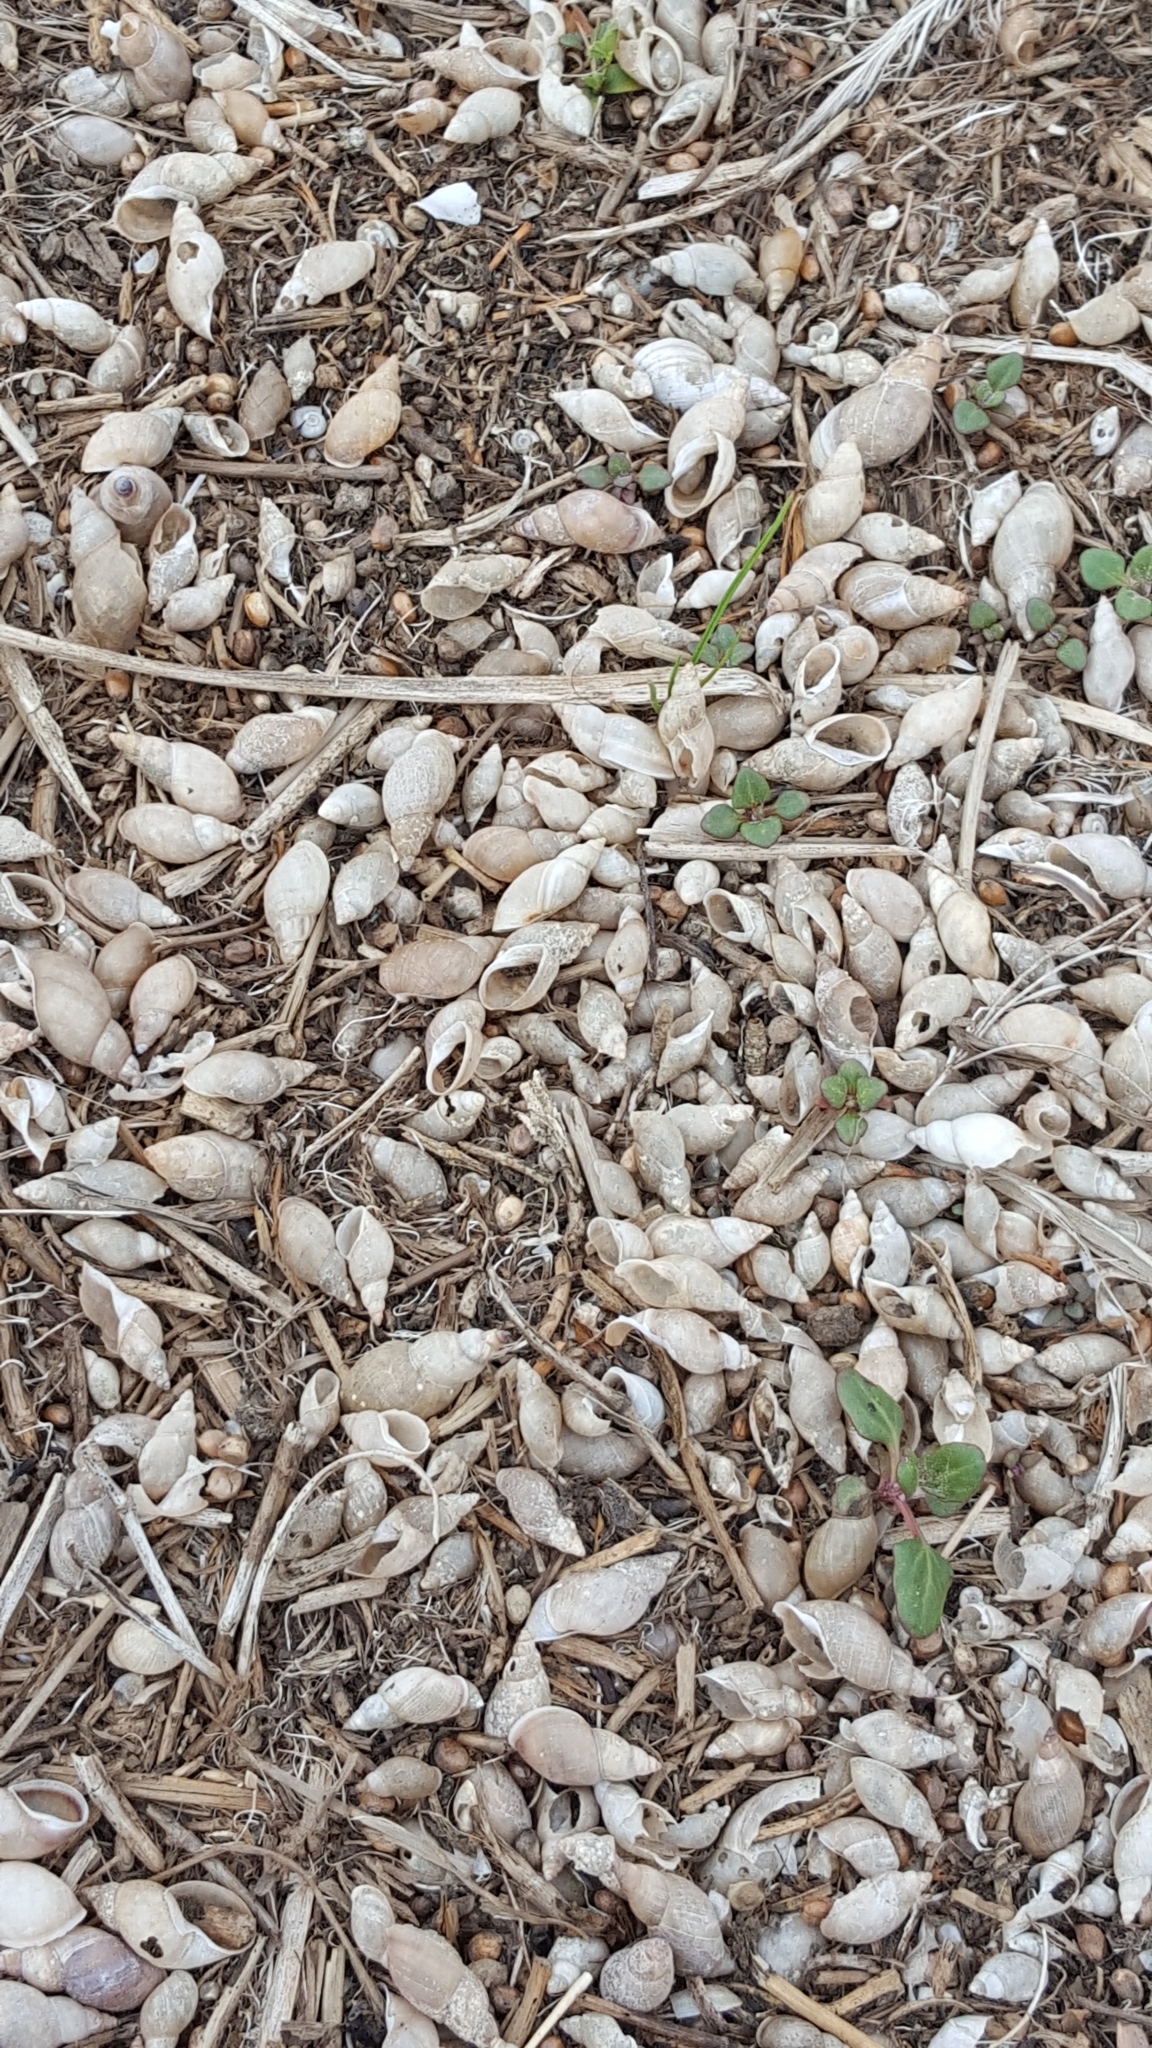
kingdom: Animalia
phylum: Mollusca
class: Gastropoda
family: Lymnaeidae
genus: Lymnaea
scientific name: Lymnaea stagnalis
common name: Great pond snail
